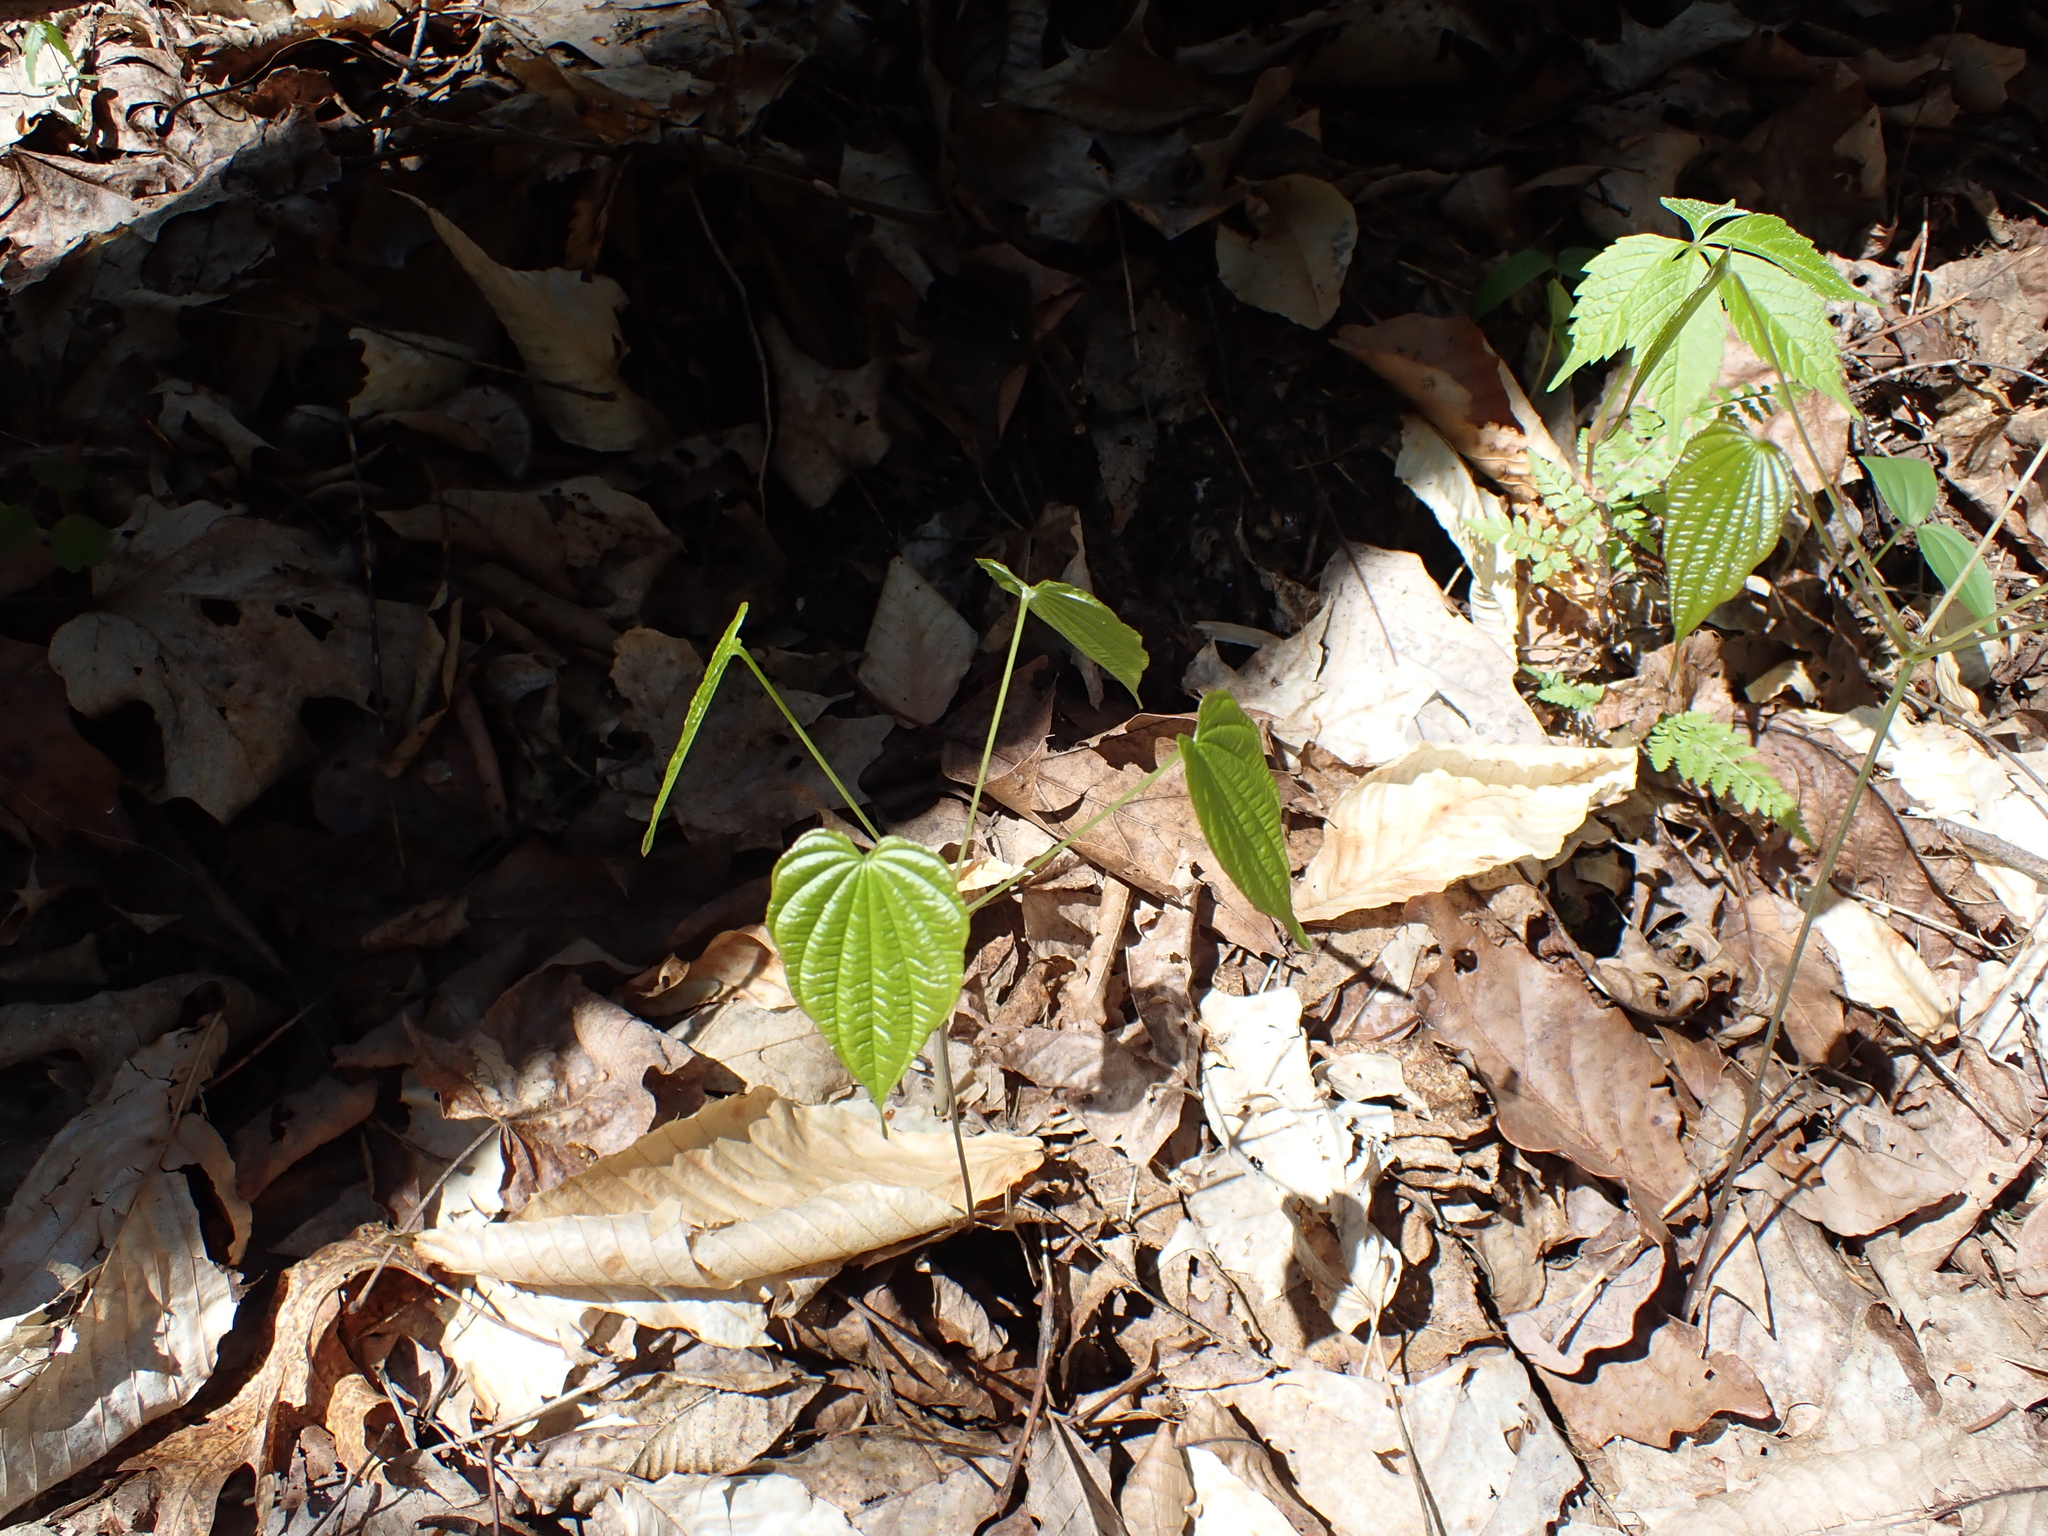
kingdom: Plantae
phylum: Tracheophyta
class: Liliopsida
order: Dioscoreales
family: Dioscoreaceae
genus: Dioscorea
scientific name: Dioscorea villosa
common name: Wild yam
